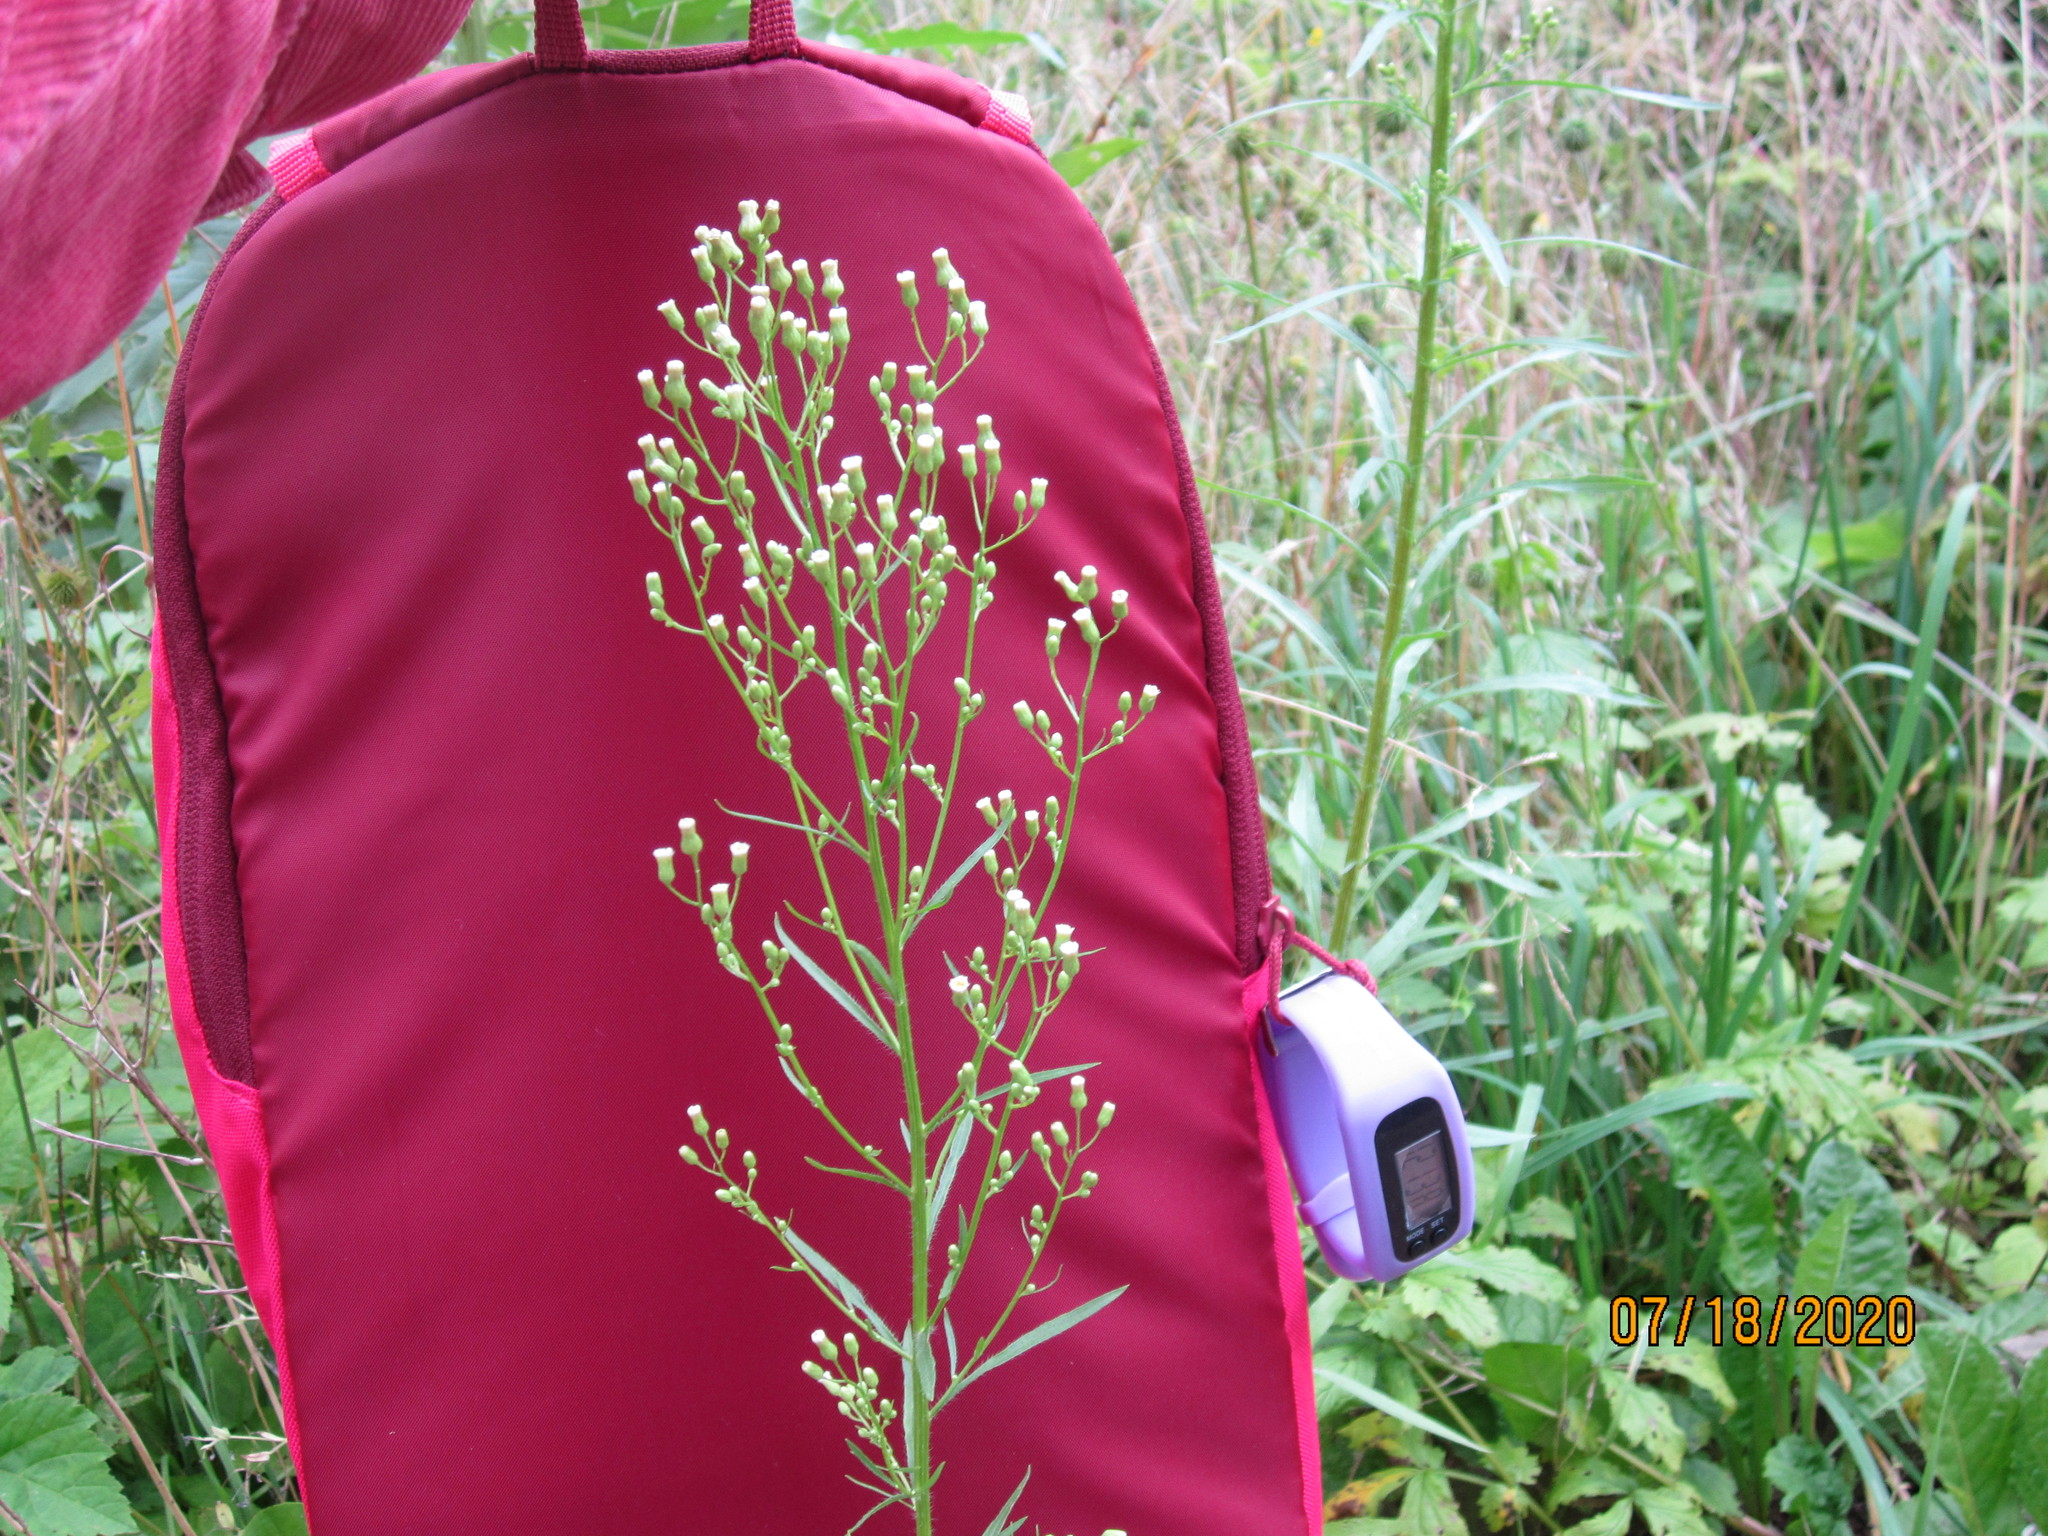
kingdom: Plantae
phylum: Tracheophyta
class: Magnoliopsida
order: Asterales
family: Asteraceae
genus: Erigeron
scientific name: Erigeron canadensis
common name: Canadian fleabane
